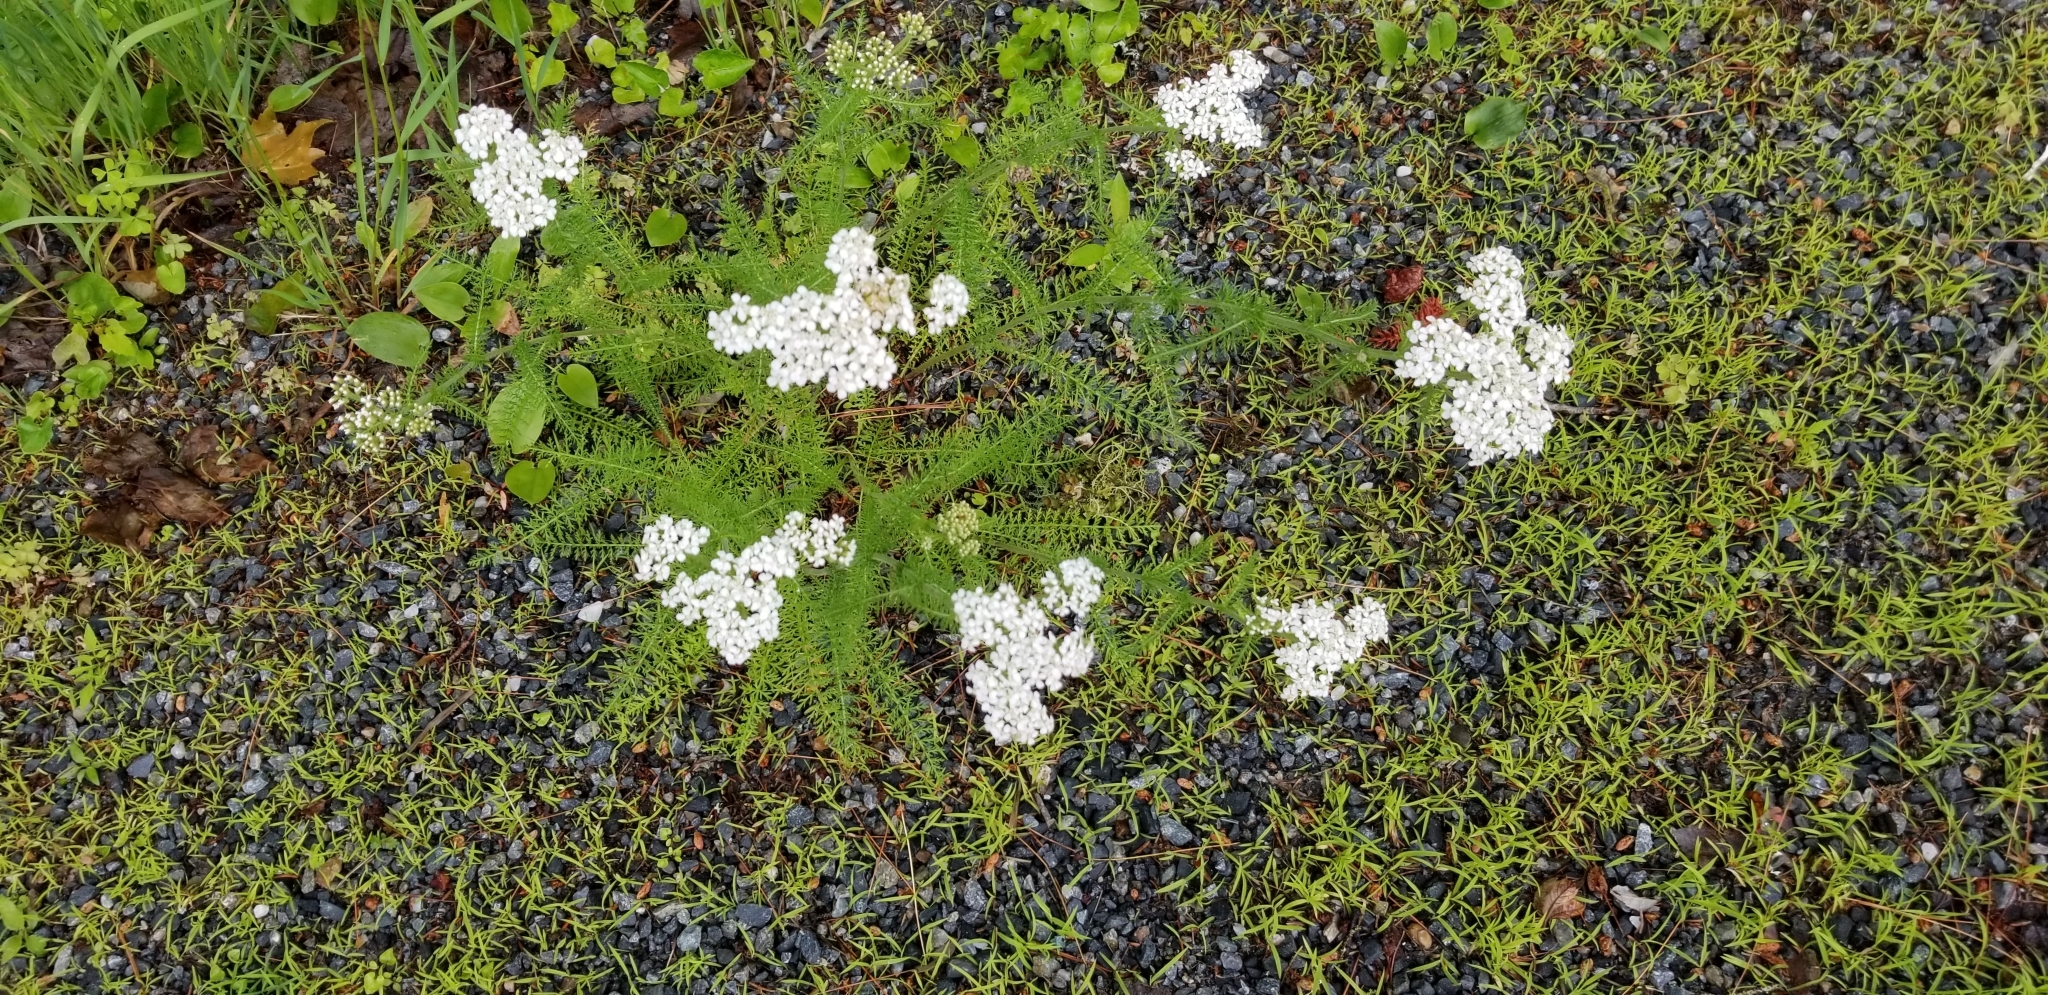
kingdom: Plantae
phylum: Tracheophyta
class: Magnoliopsida
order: Asterales
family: Asteraceae
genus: Achillea
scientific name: Achillea millefolium
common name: Yarrow
